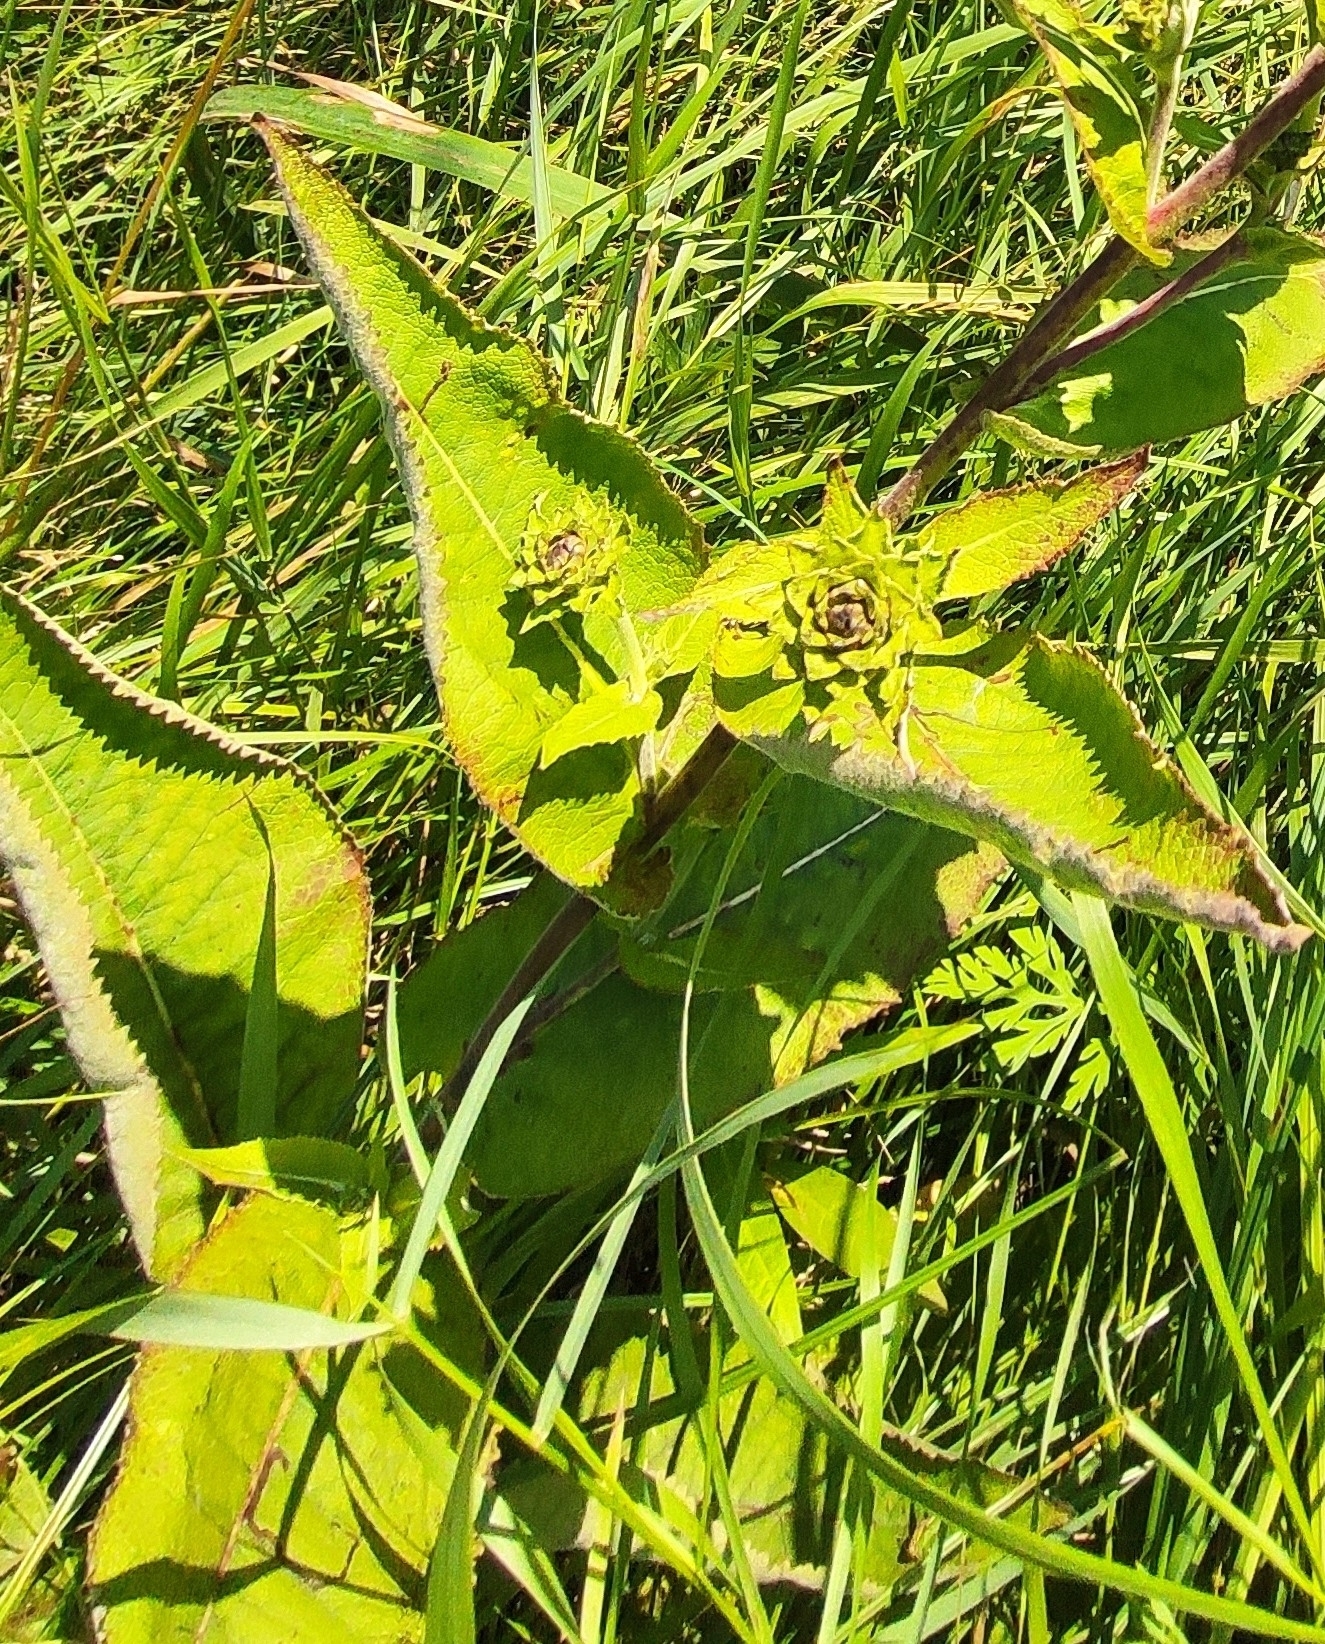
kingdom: Plantae
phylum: Tracheophyta
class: Magnoliopsida
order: Asterales
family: Asteraceae
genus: Inula
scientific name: Inula helenium
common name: Elecampane
